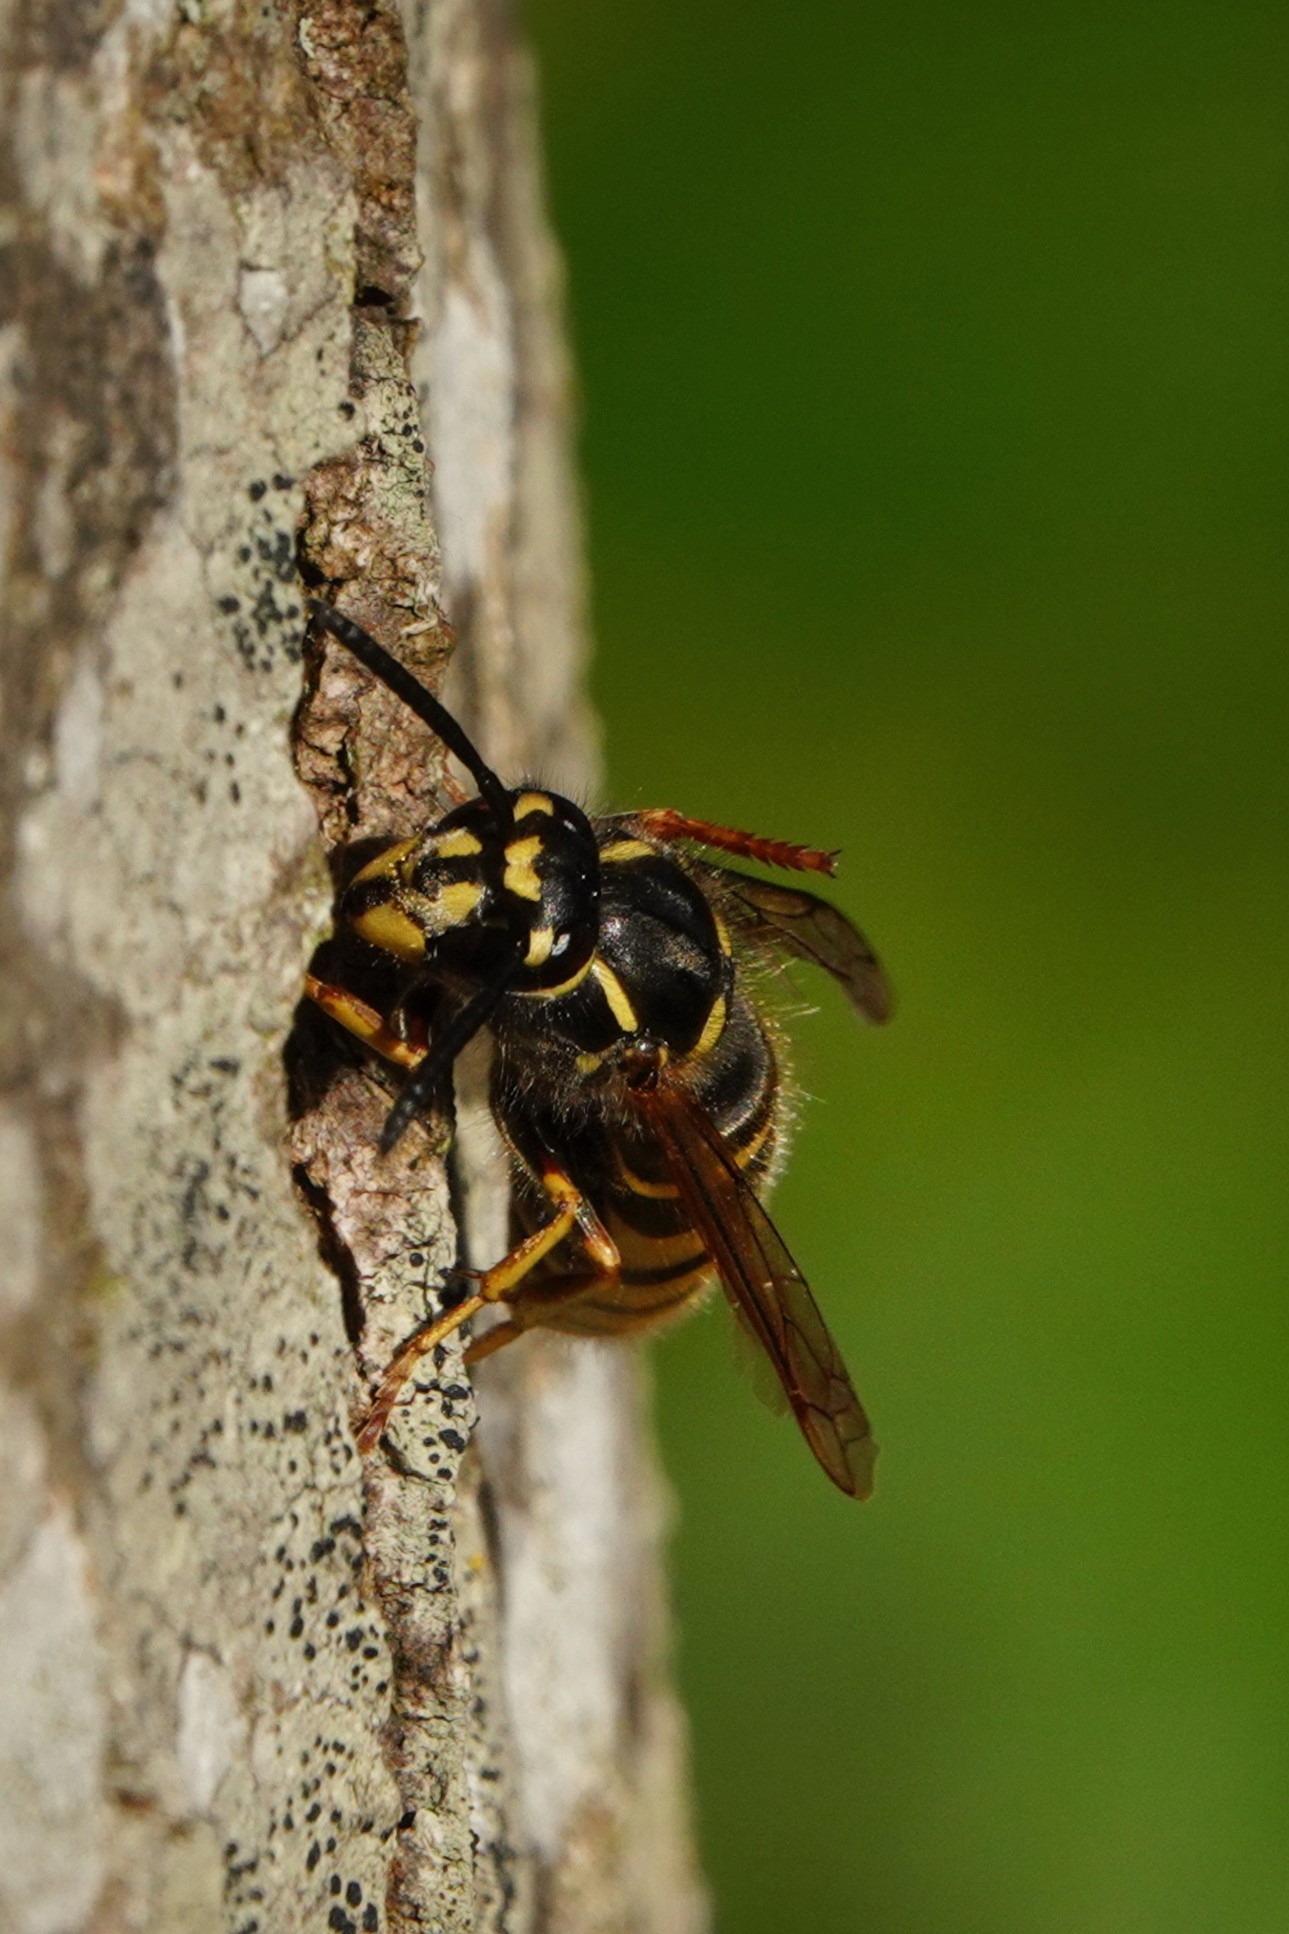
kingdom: Animalia
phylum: Arthropoda
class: Insecta
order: Hymenoptera
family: Vespidae
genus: Vespula
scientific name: Vespula vulgaris
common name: Common wasp
